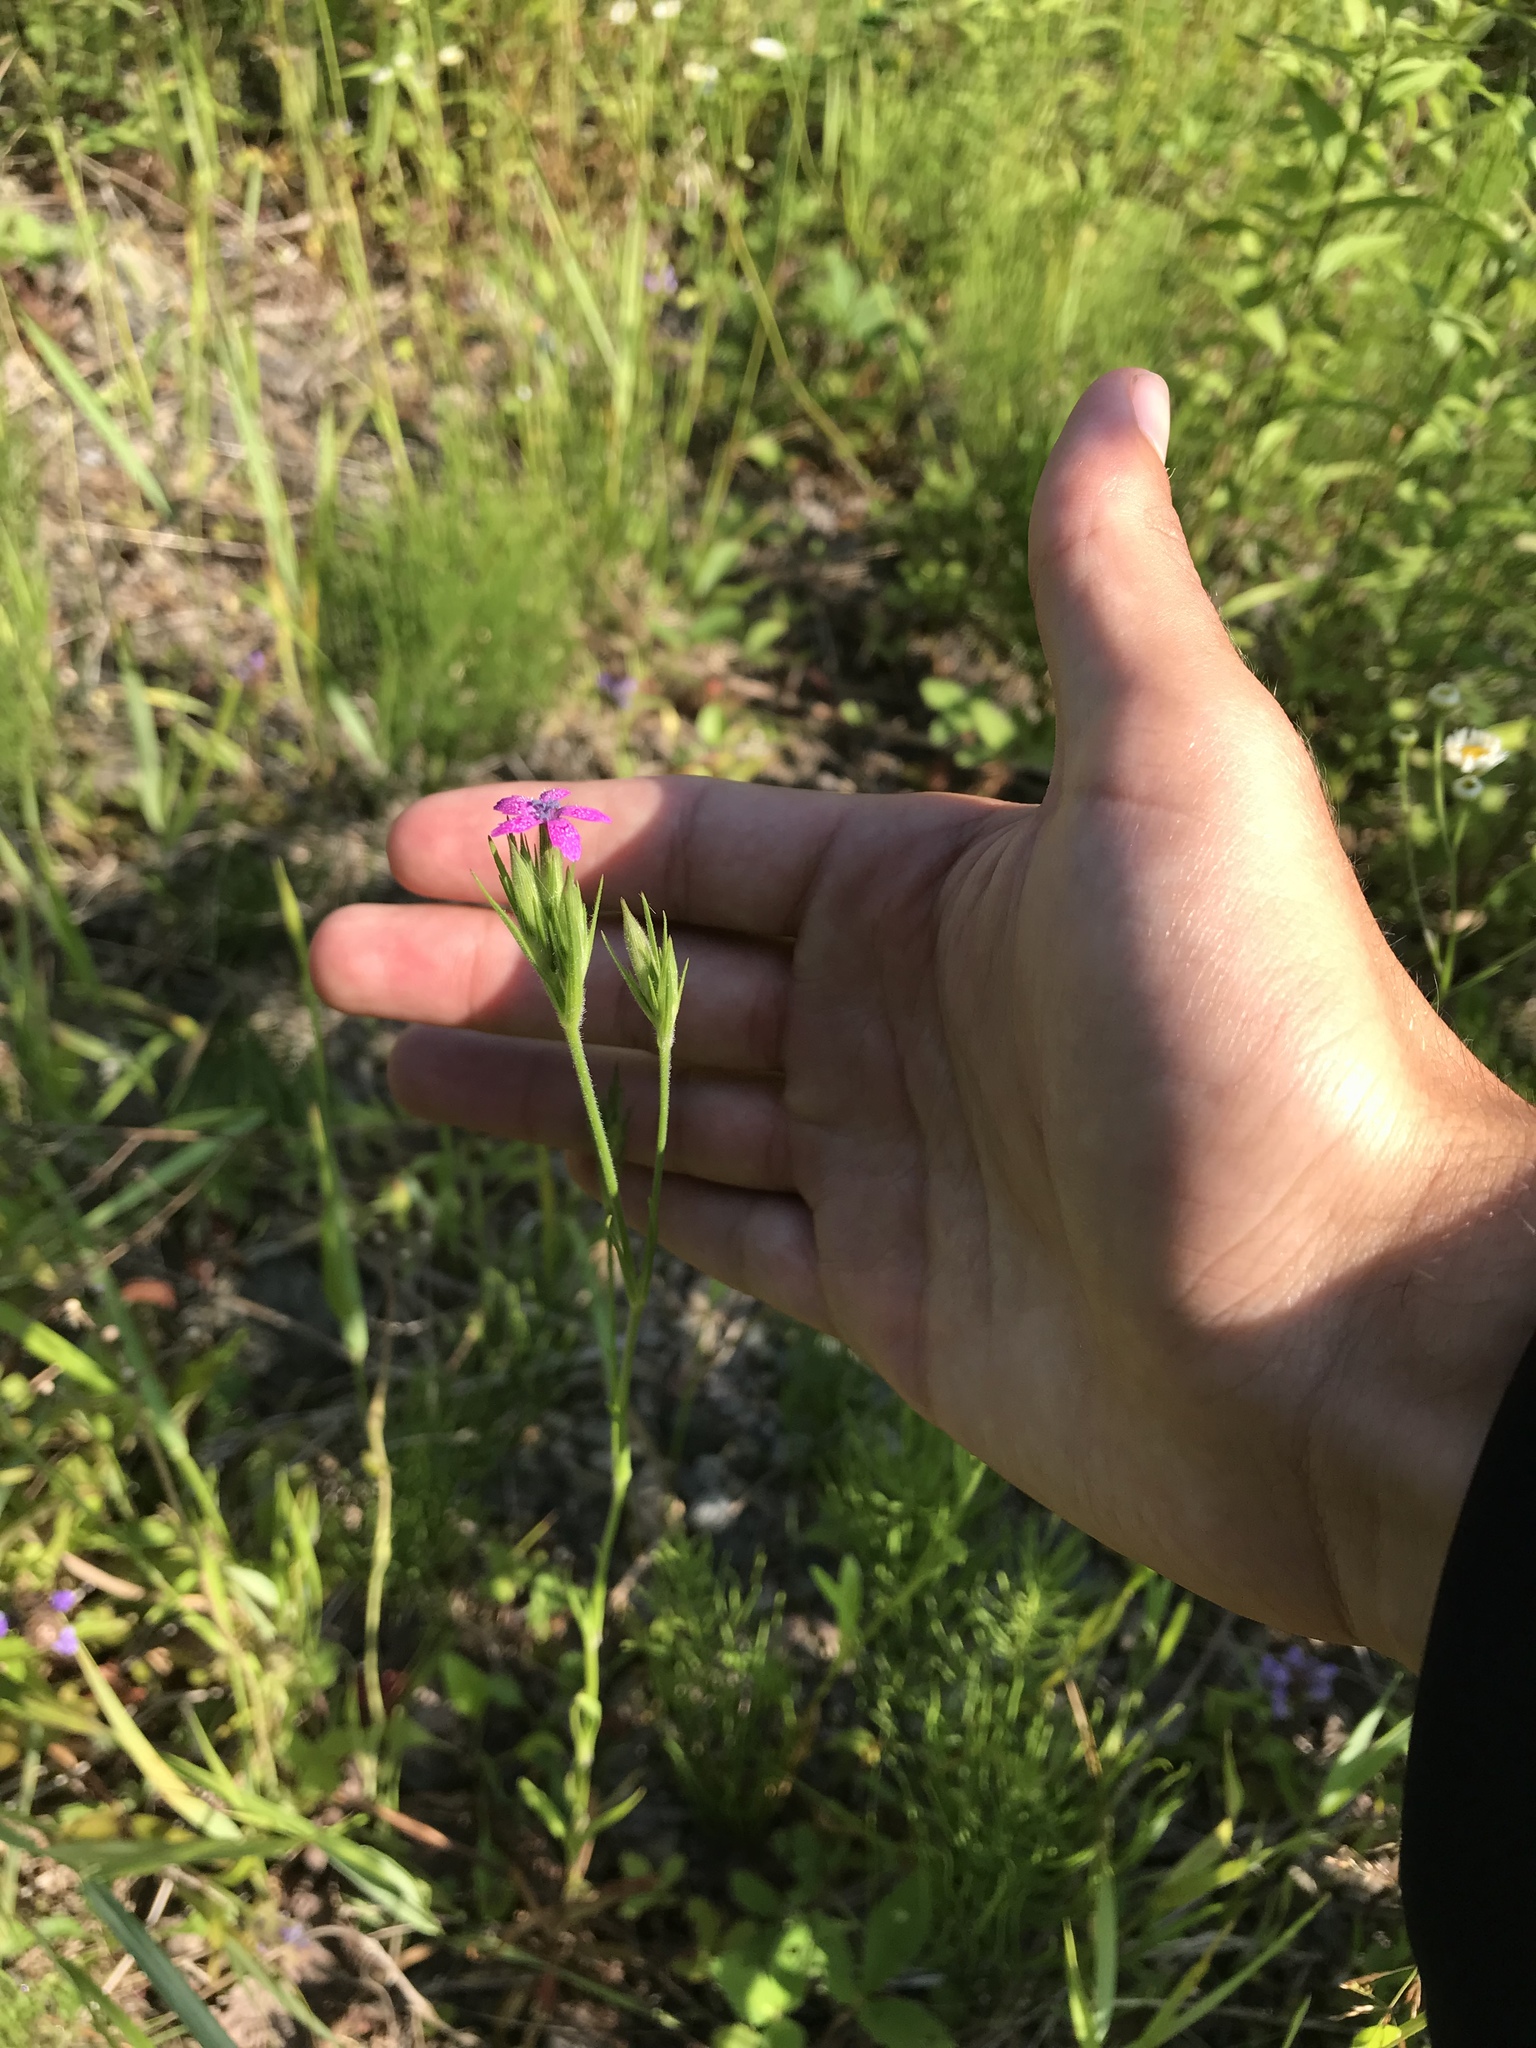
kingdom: Plantae
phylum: Tracheophyta
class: Magnoliopsida
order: Caryophyllales
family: Caryophyllaceae
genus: Dianthus
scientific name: Dianthus armeria
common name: Deptford pink
